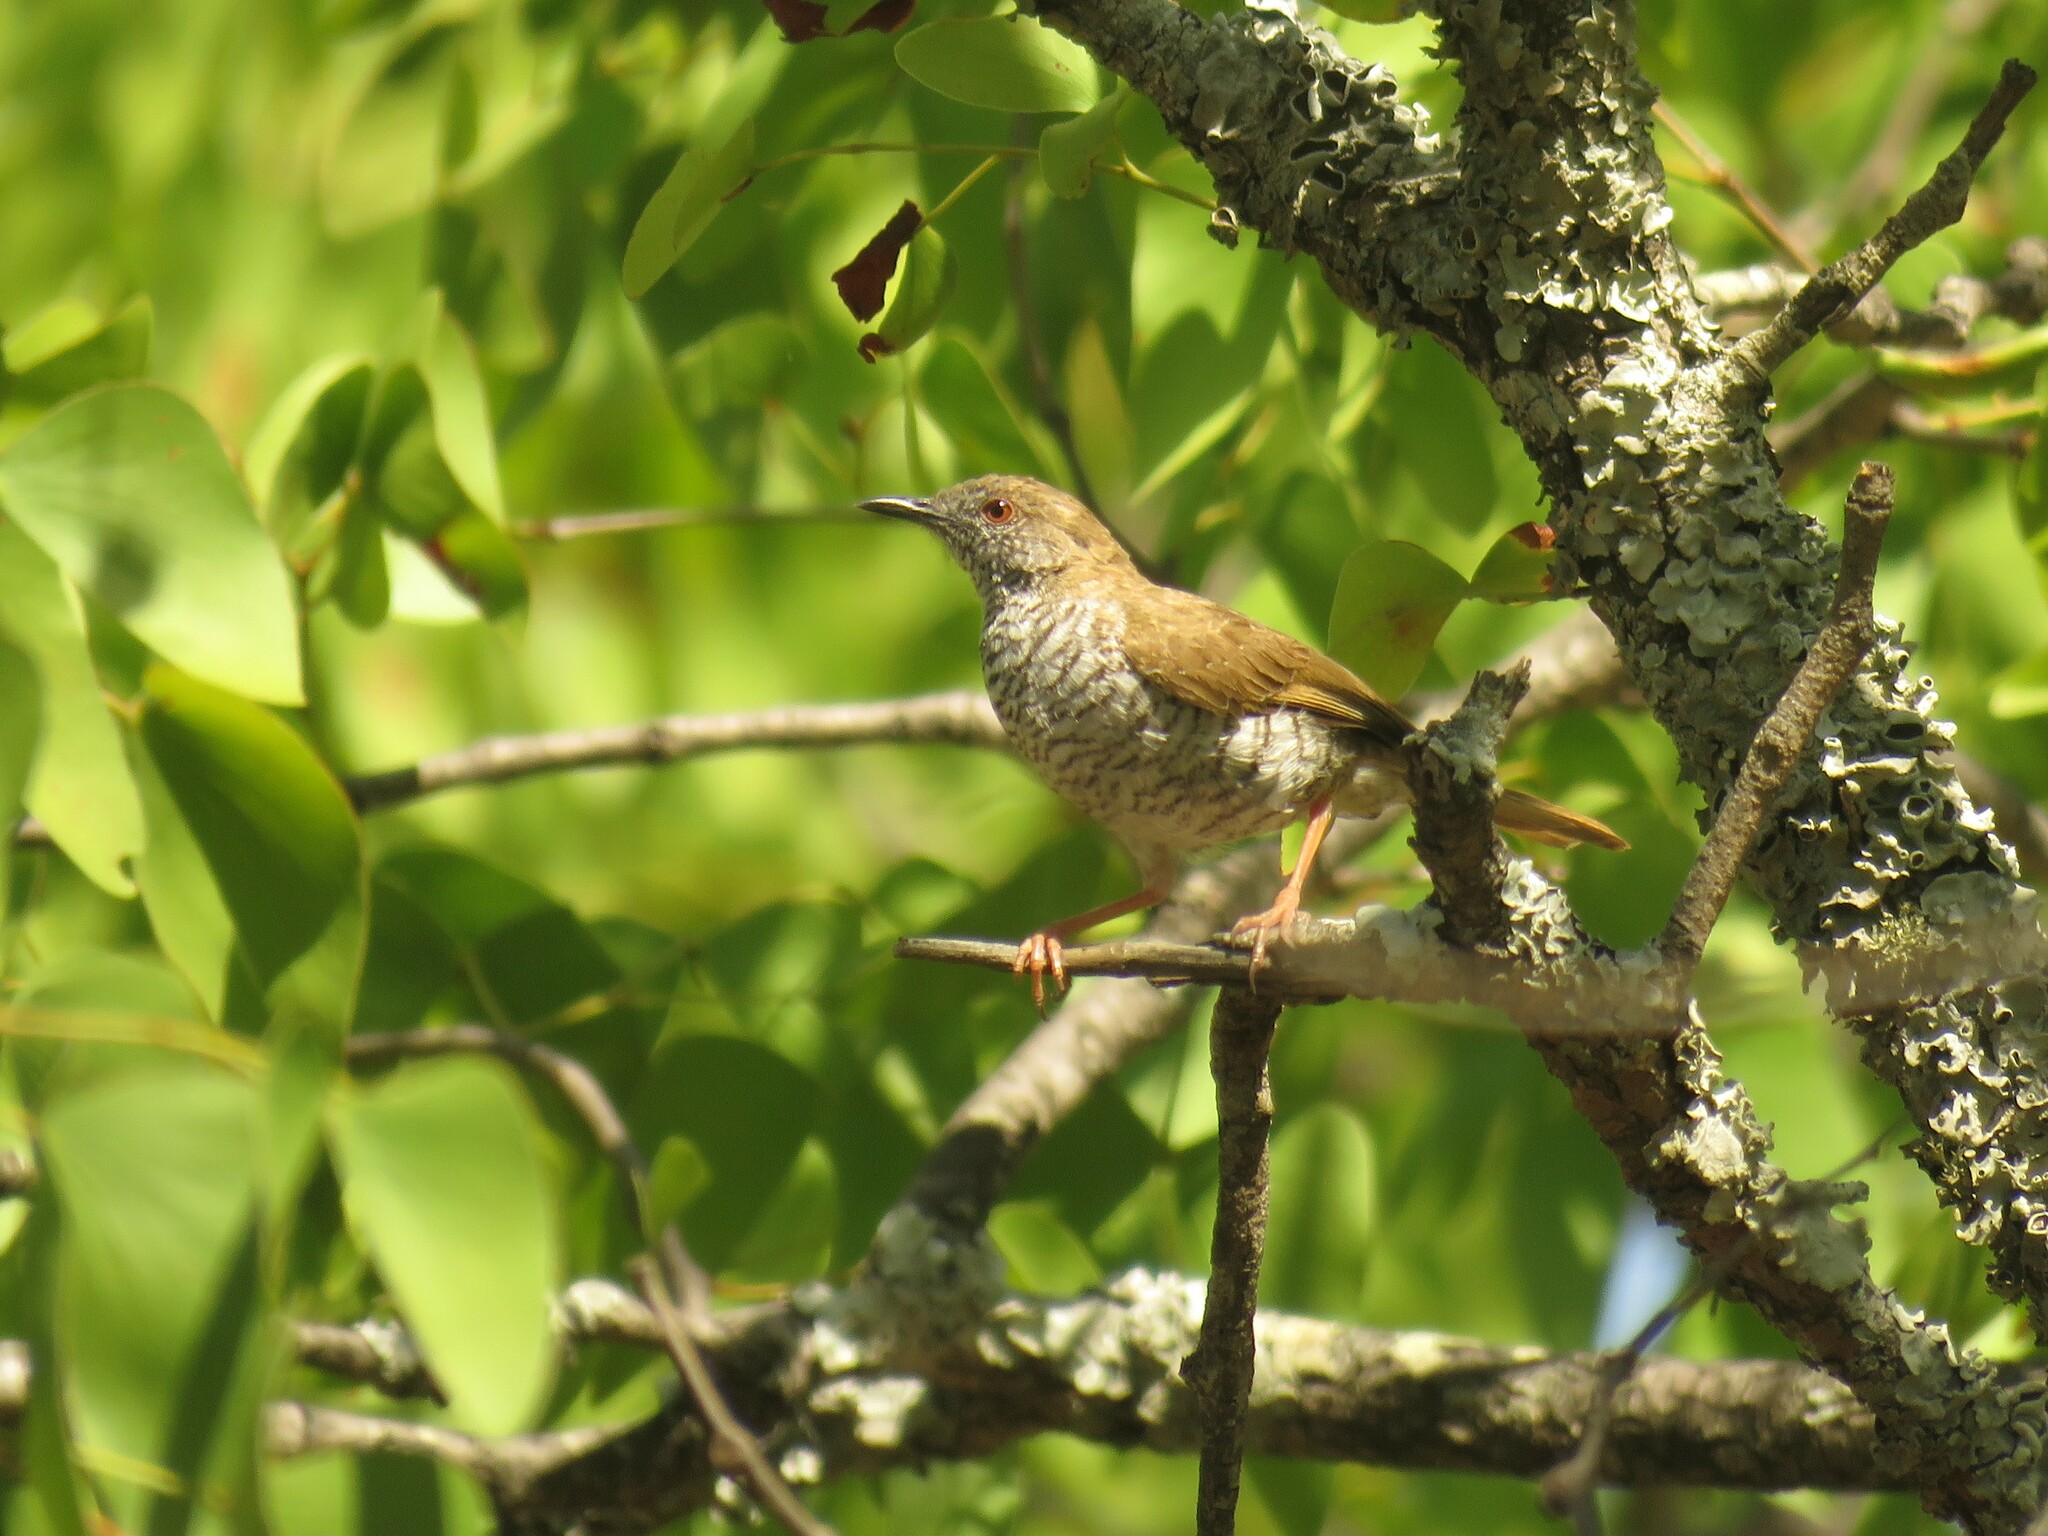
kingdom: Animalia
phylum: Chordata
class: Aves
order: Passeriformes
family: Cisticolidae
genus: Calamonastes
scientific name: Calamonastes stierlingi
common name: Stierling's wren-warbler
